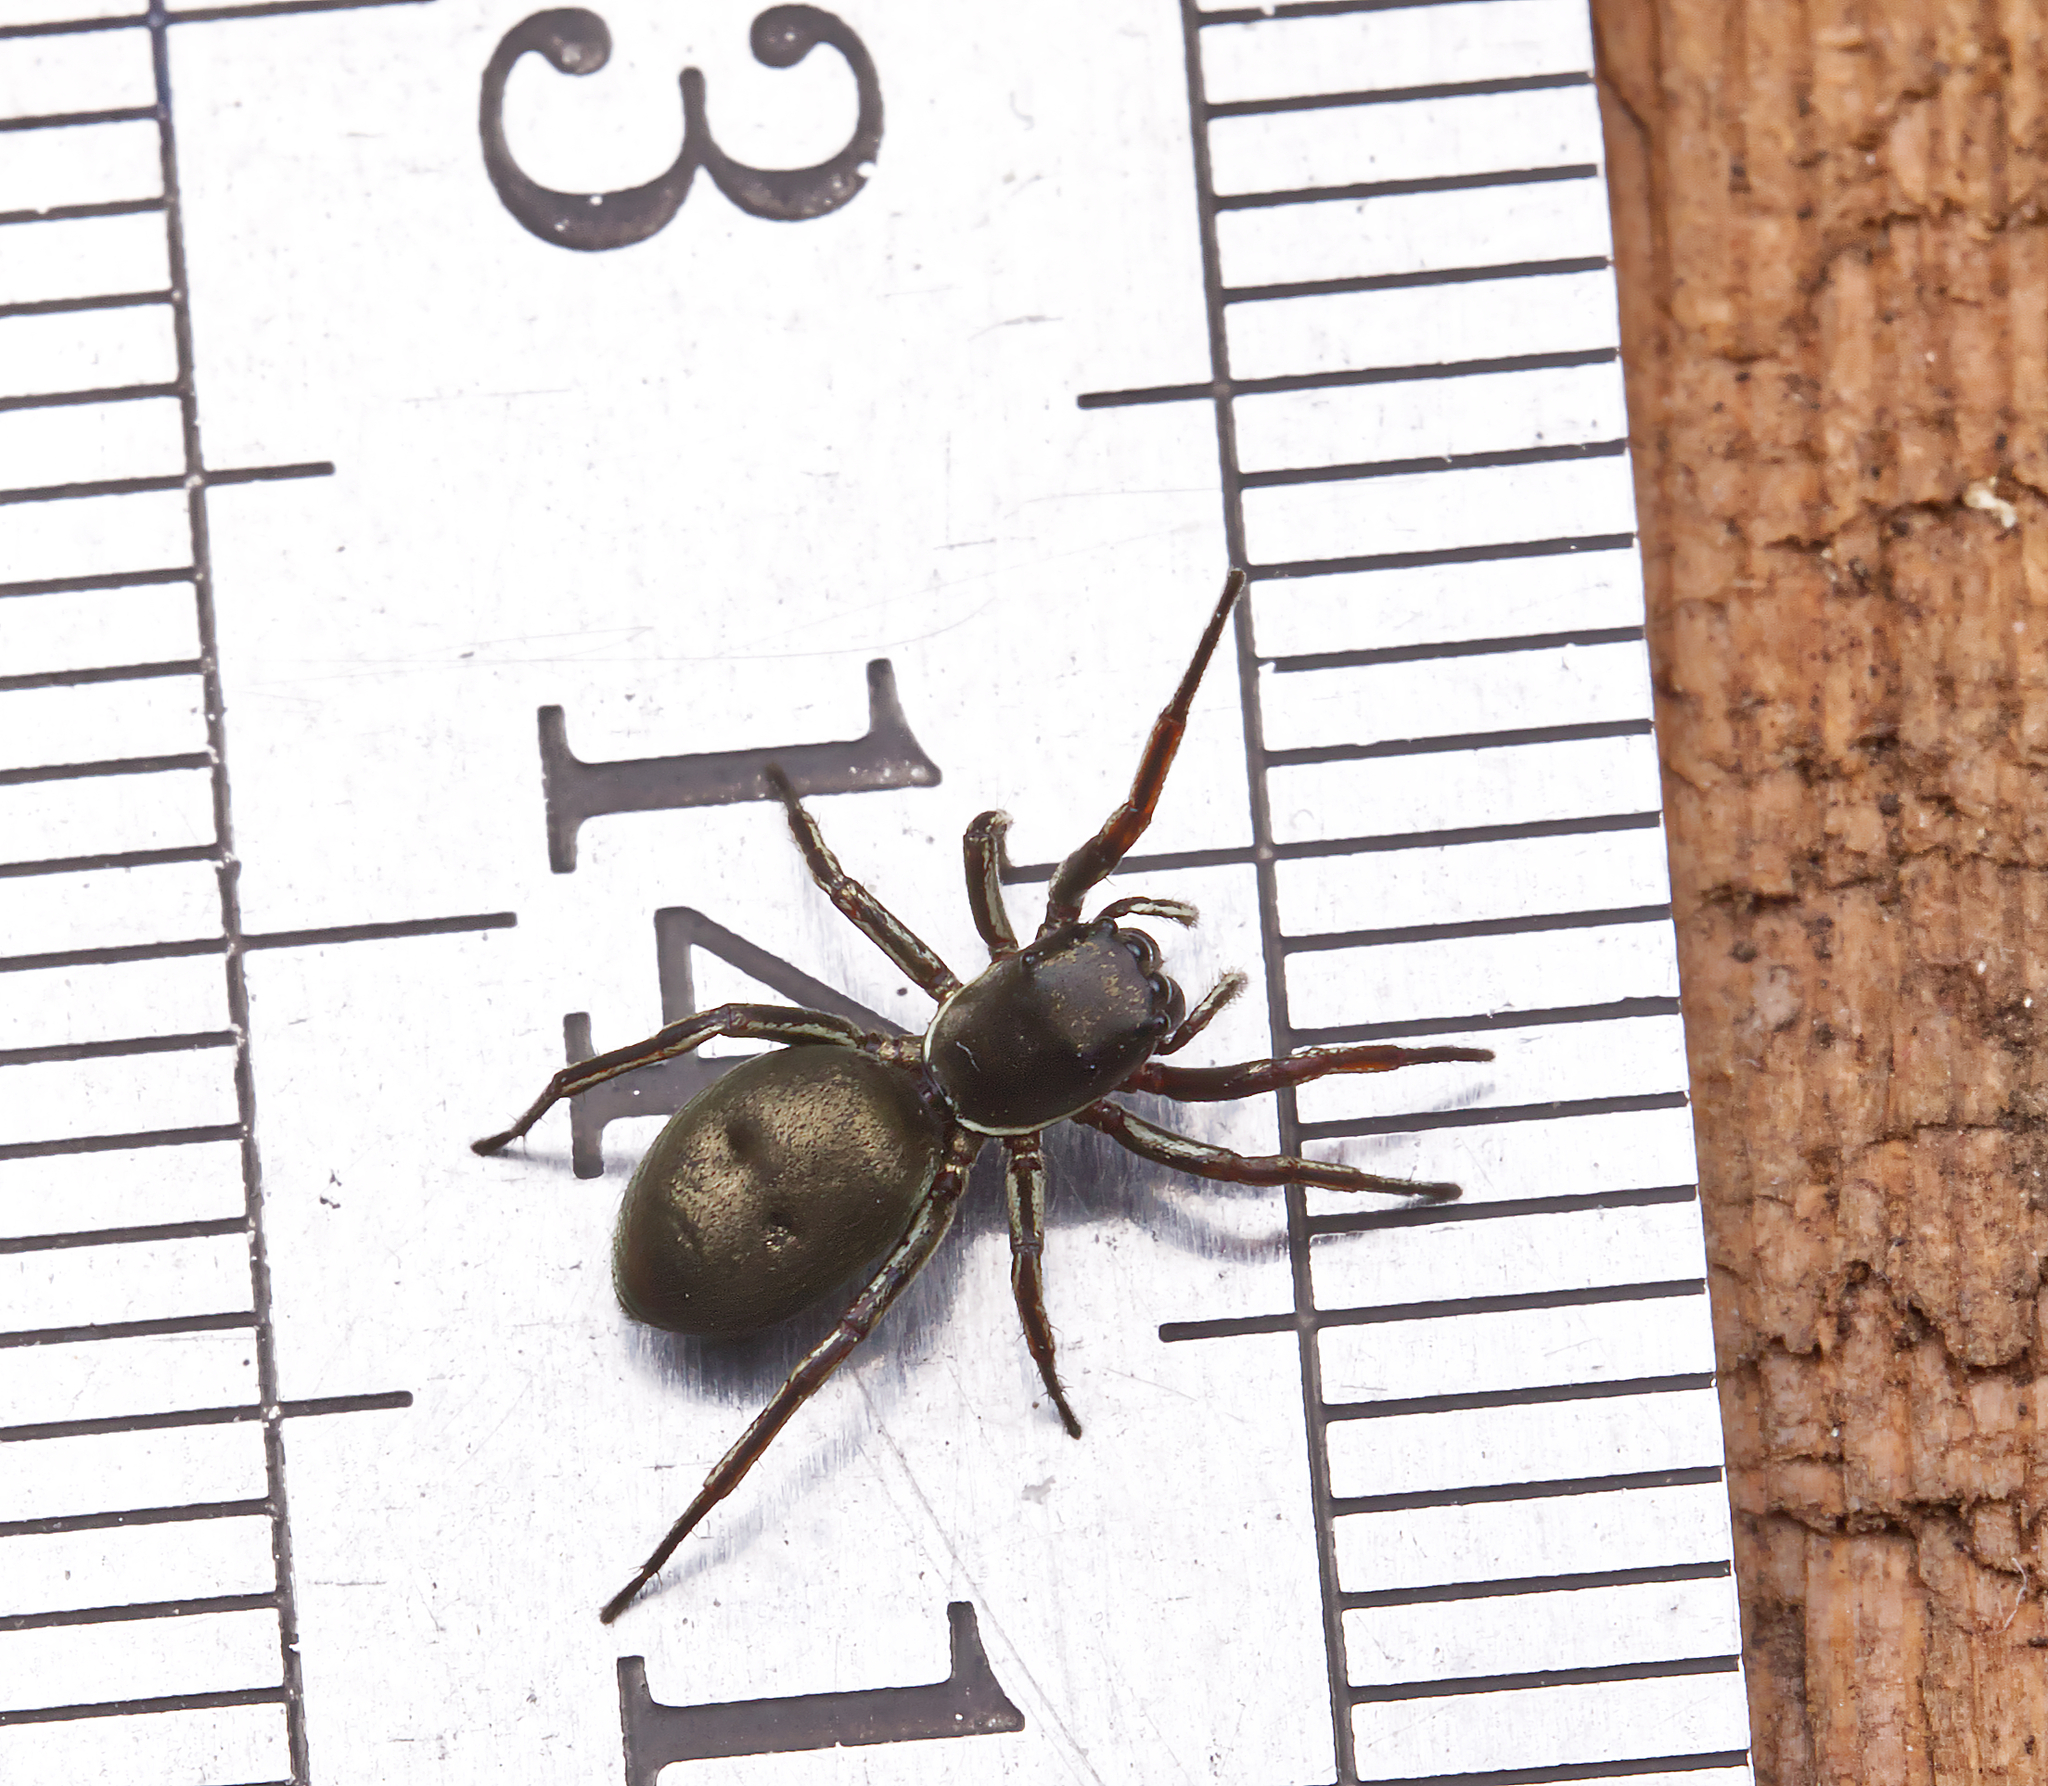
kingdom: Animalia
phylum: Arthropoda
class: Arachnida
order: Araneae
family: Salticidae
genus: Tutelina
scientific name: Tutelina similis
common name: Thick-spined jumping spider
